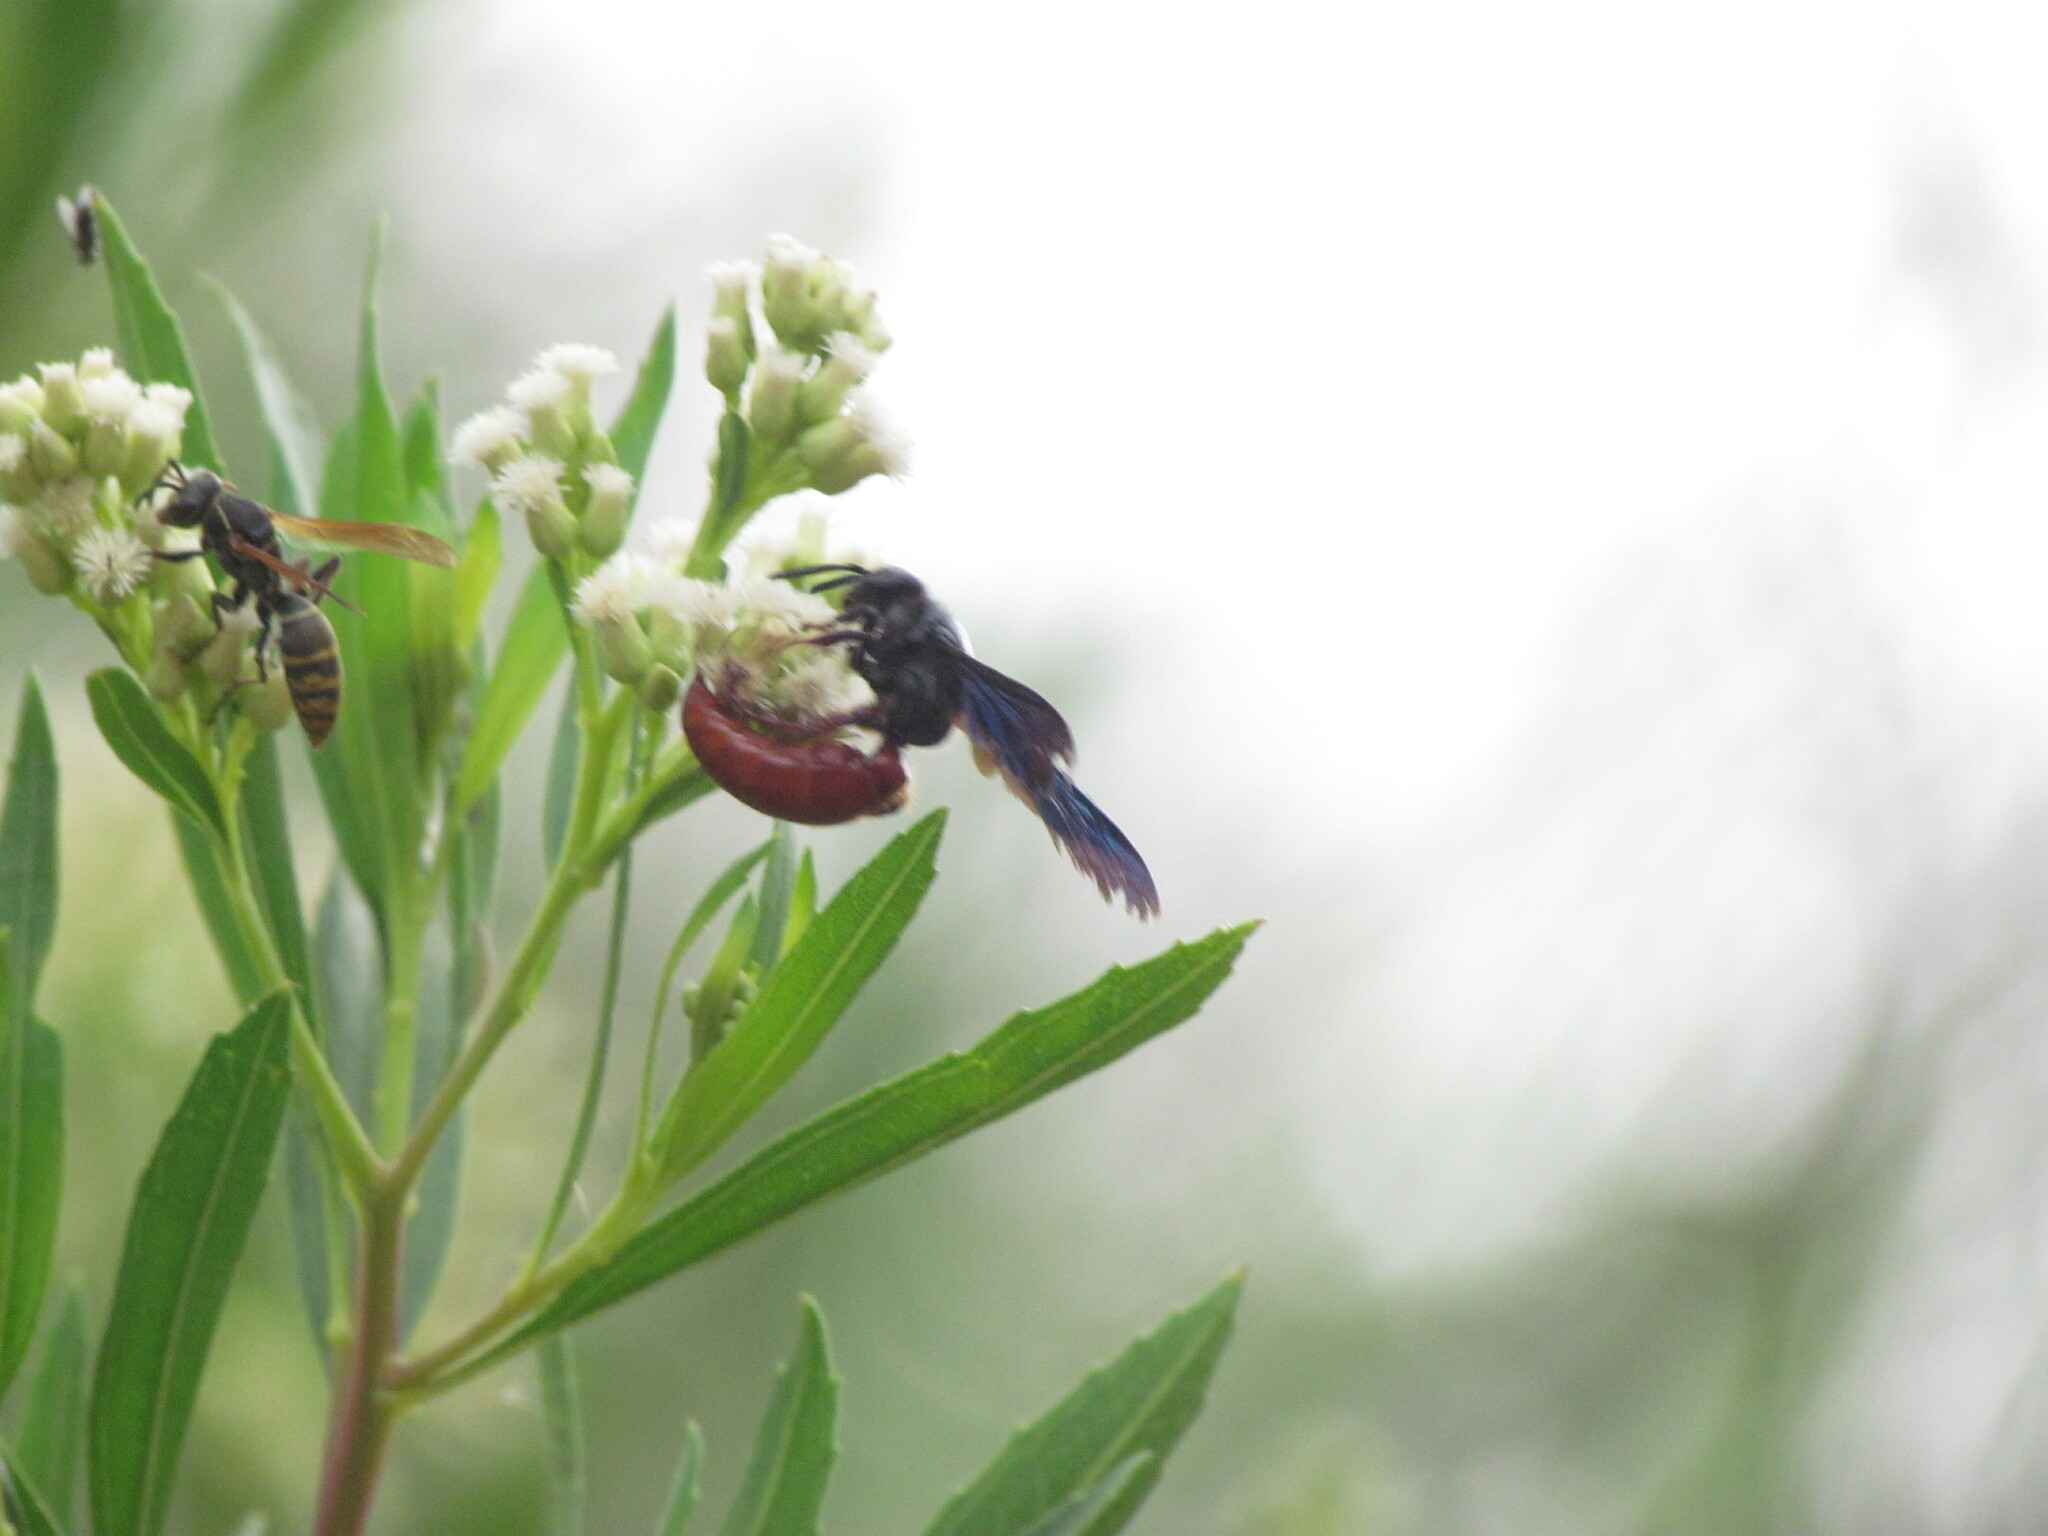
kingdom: Animalia
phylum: Arthropoda
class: Insecta
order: Hymenoptera
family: Scoliidae
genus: Scolia
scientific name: Scolia rufiventris
